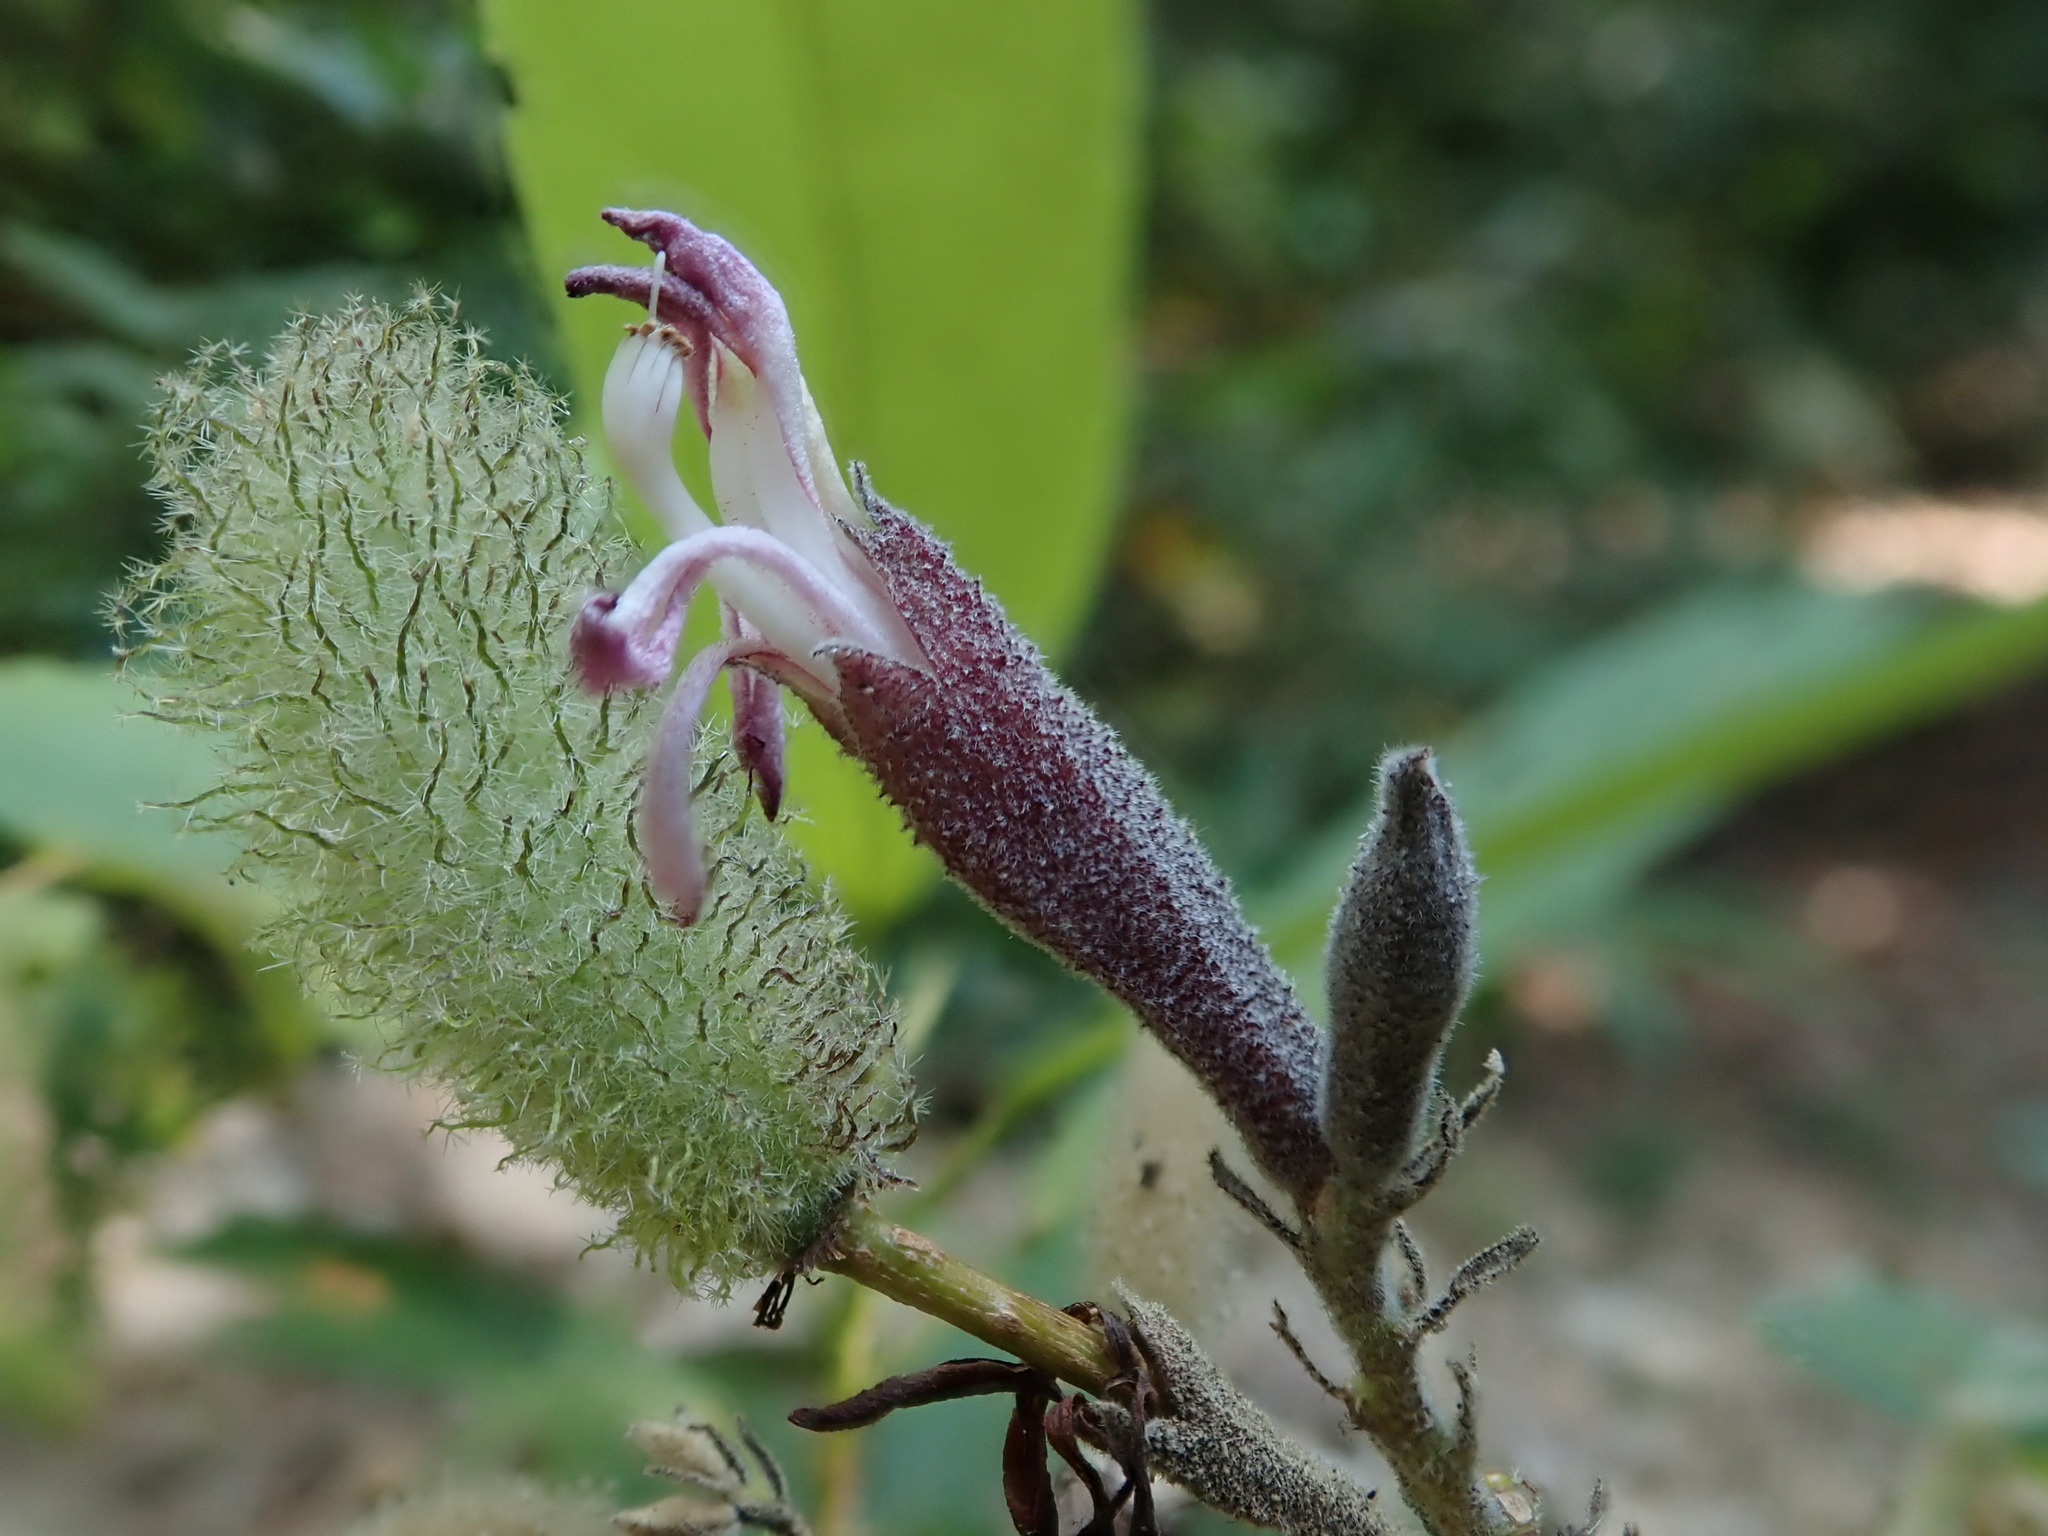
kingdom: Plantae
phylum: Tracheophyta
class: Magnoliopsida
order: Malvales
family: Malvaceae
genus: Helicteres
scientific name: Helicteres hirsuta
